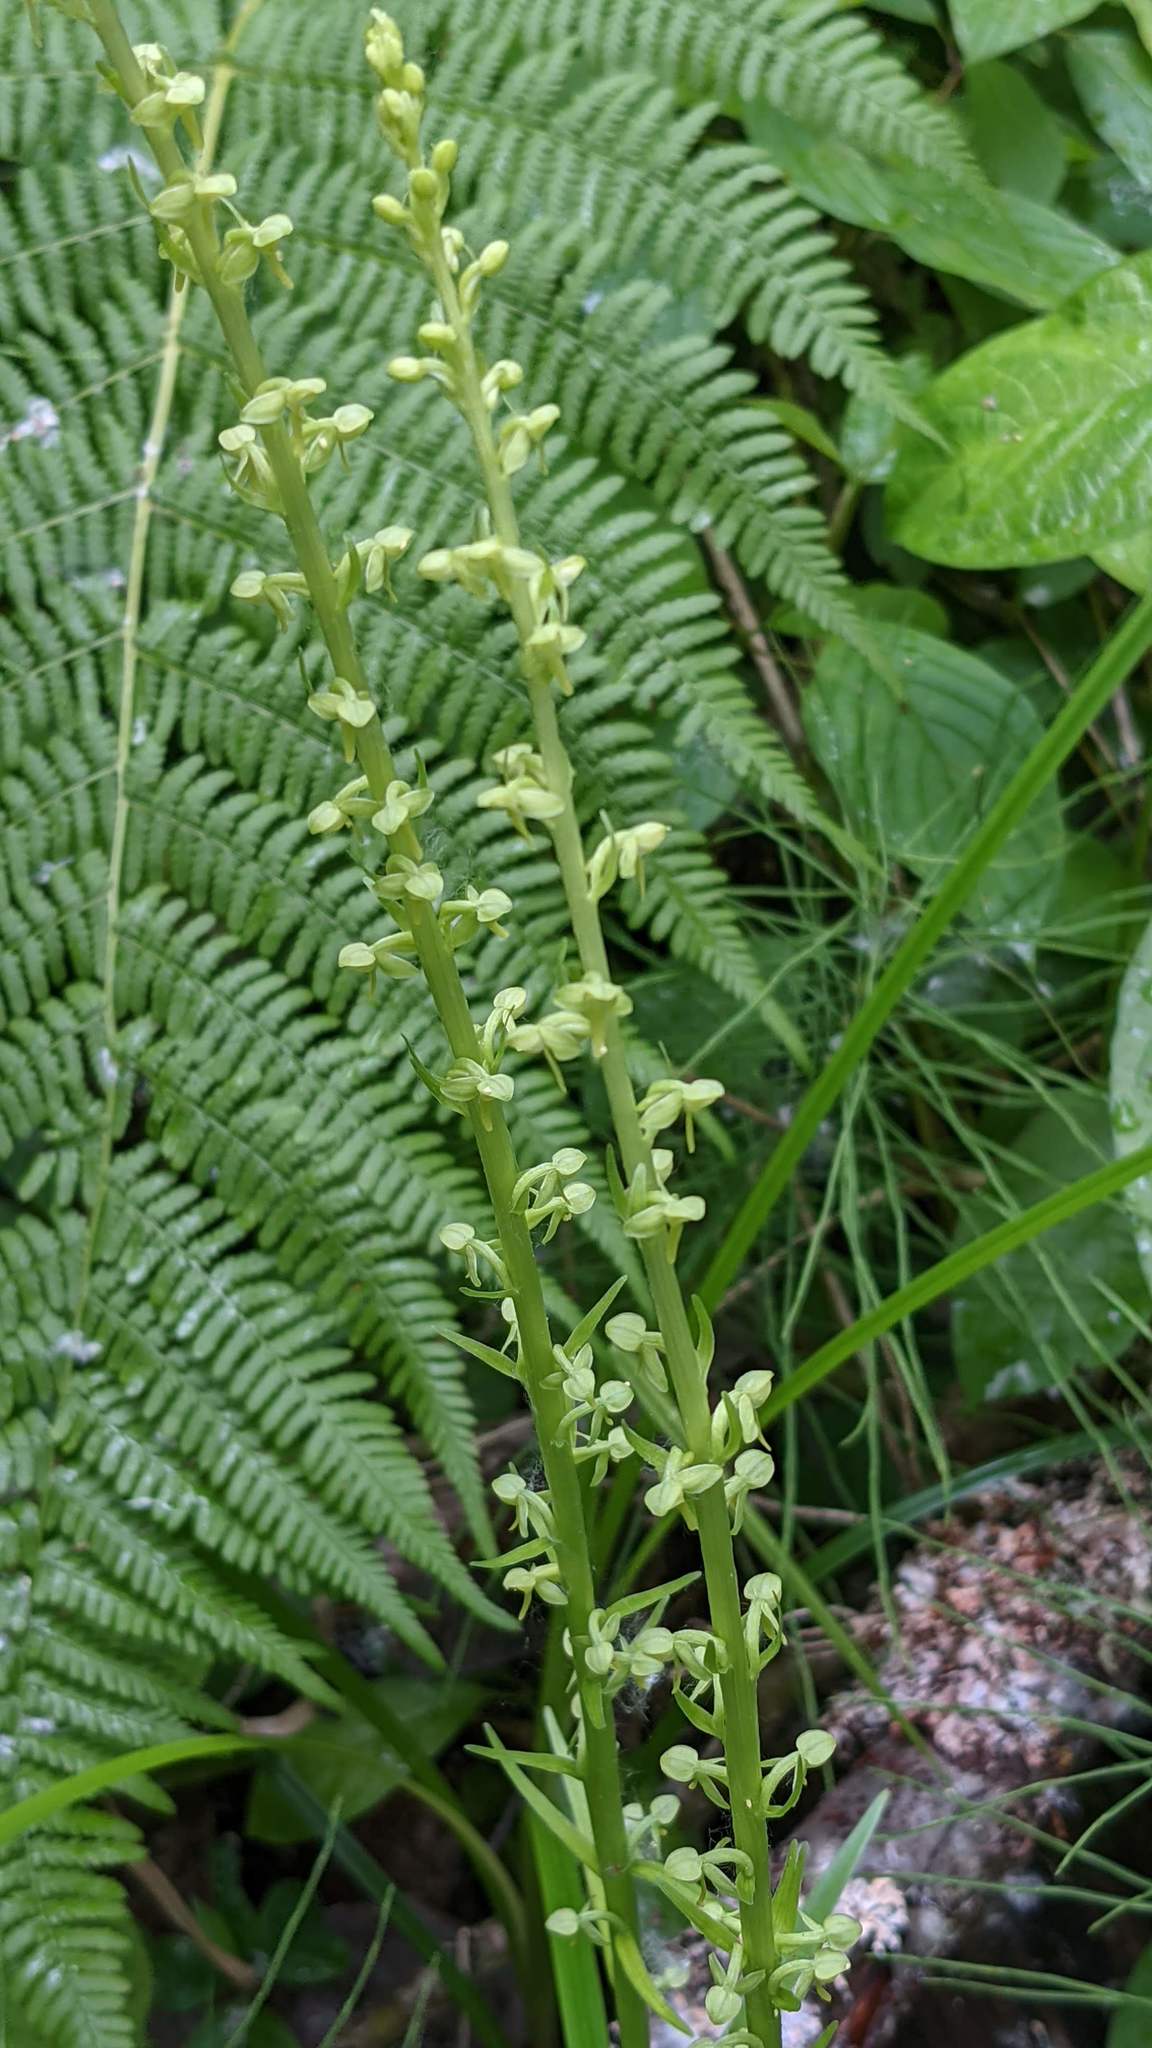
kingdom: Plantae
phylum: Tracheophyta
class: Liliopsida
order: Asparagales
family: Orchidaceae
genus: Platanthera
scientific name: Platanthera stricta
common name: Slender bog orchid
